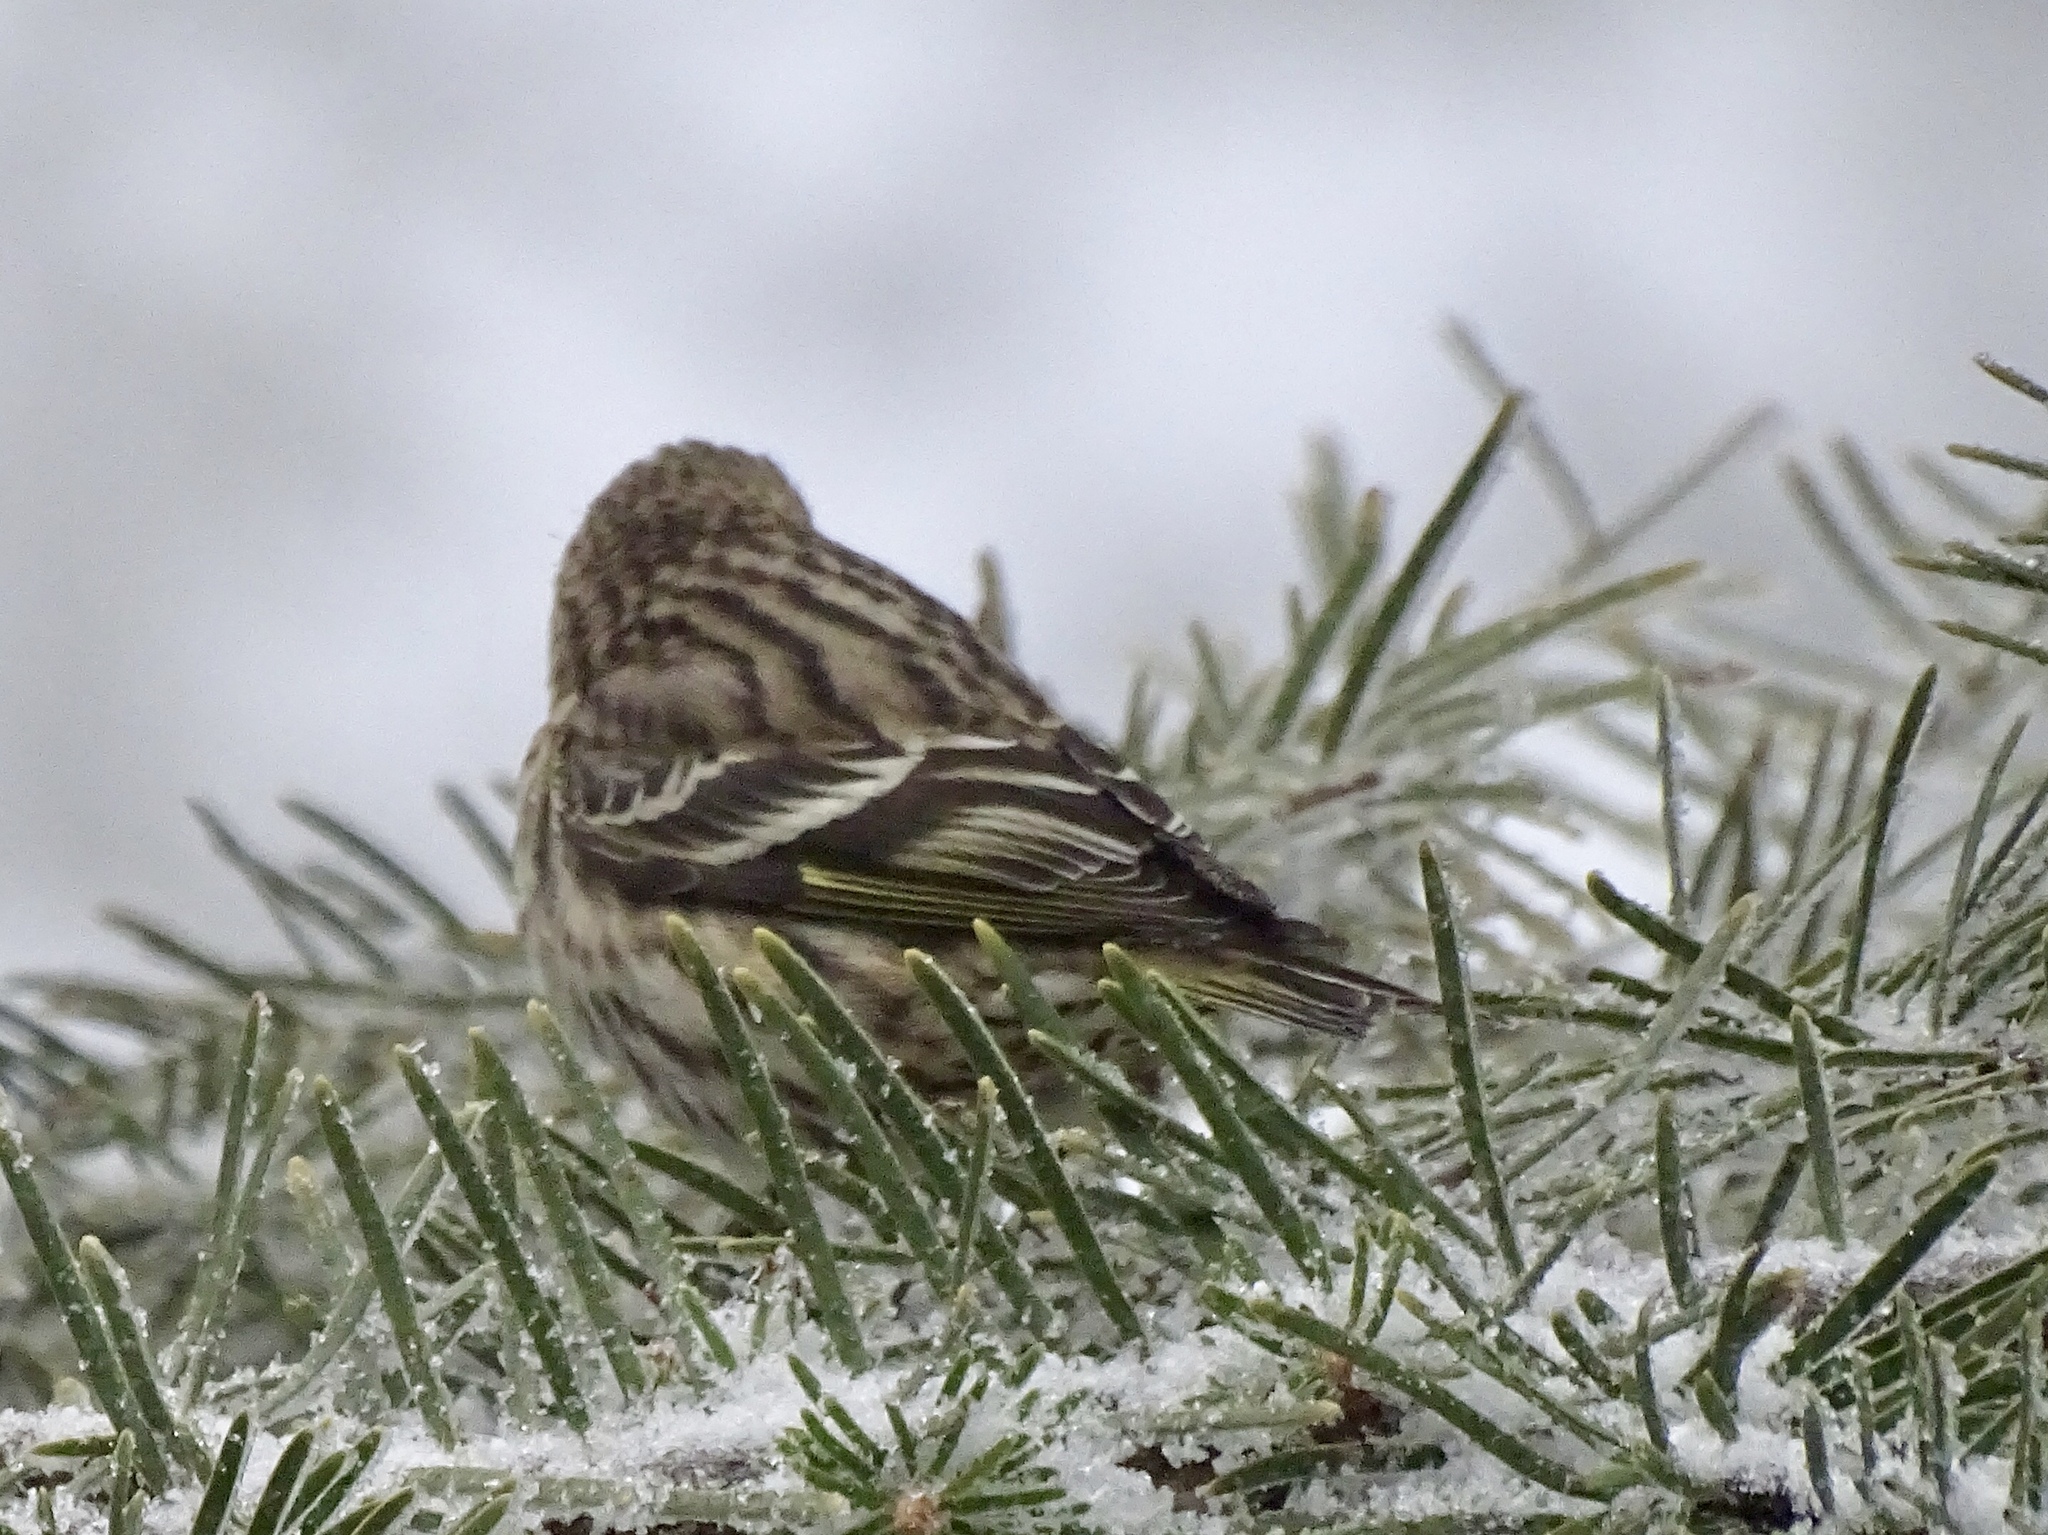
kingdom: Animalia
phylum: Chordata
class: Aves
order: Passeriformes
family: Fringillidae
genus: Spinus
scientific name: Spinus pinus
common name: Pine siskin
